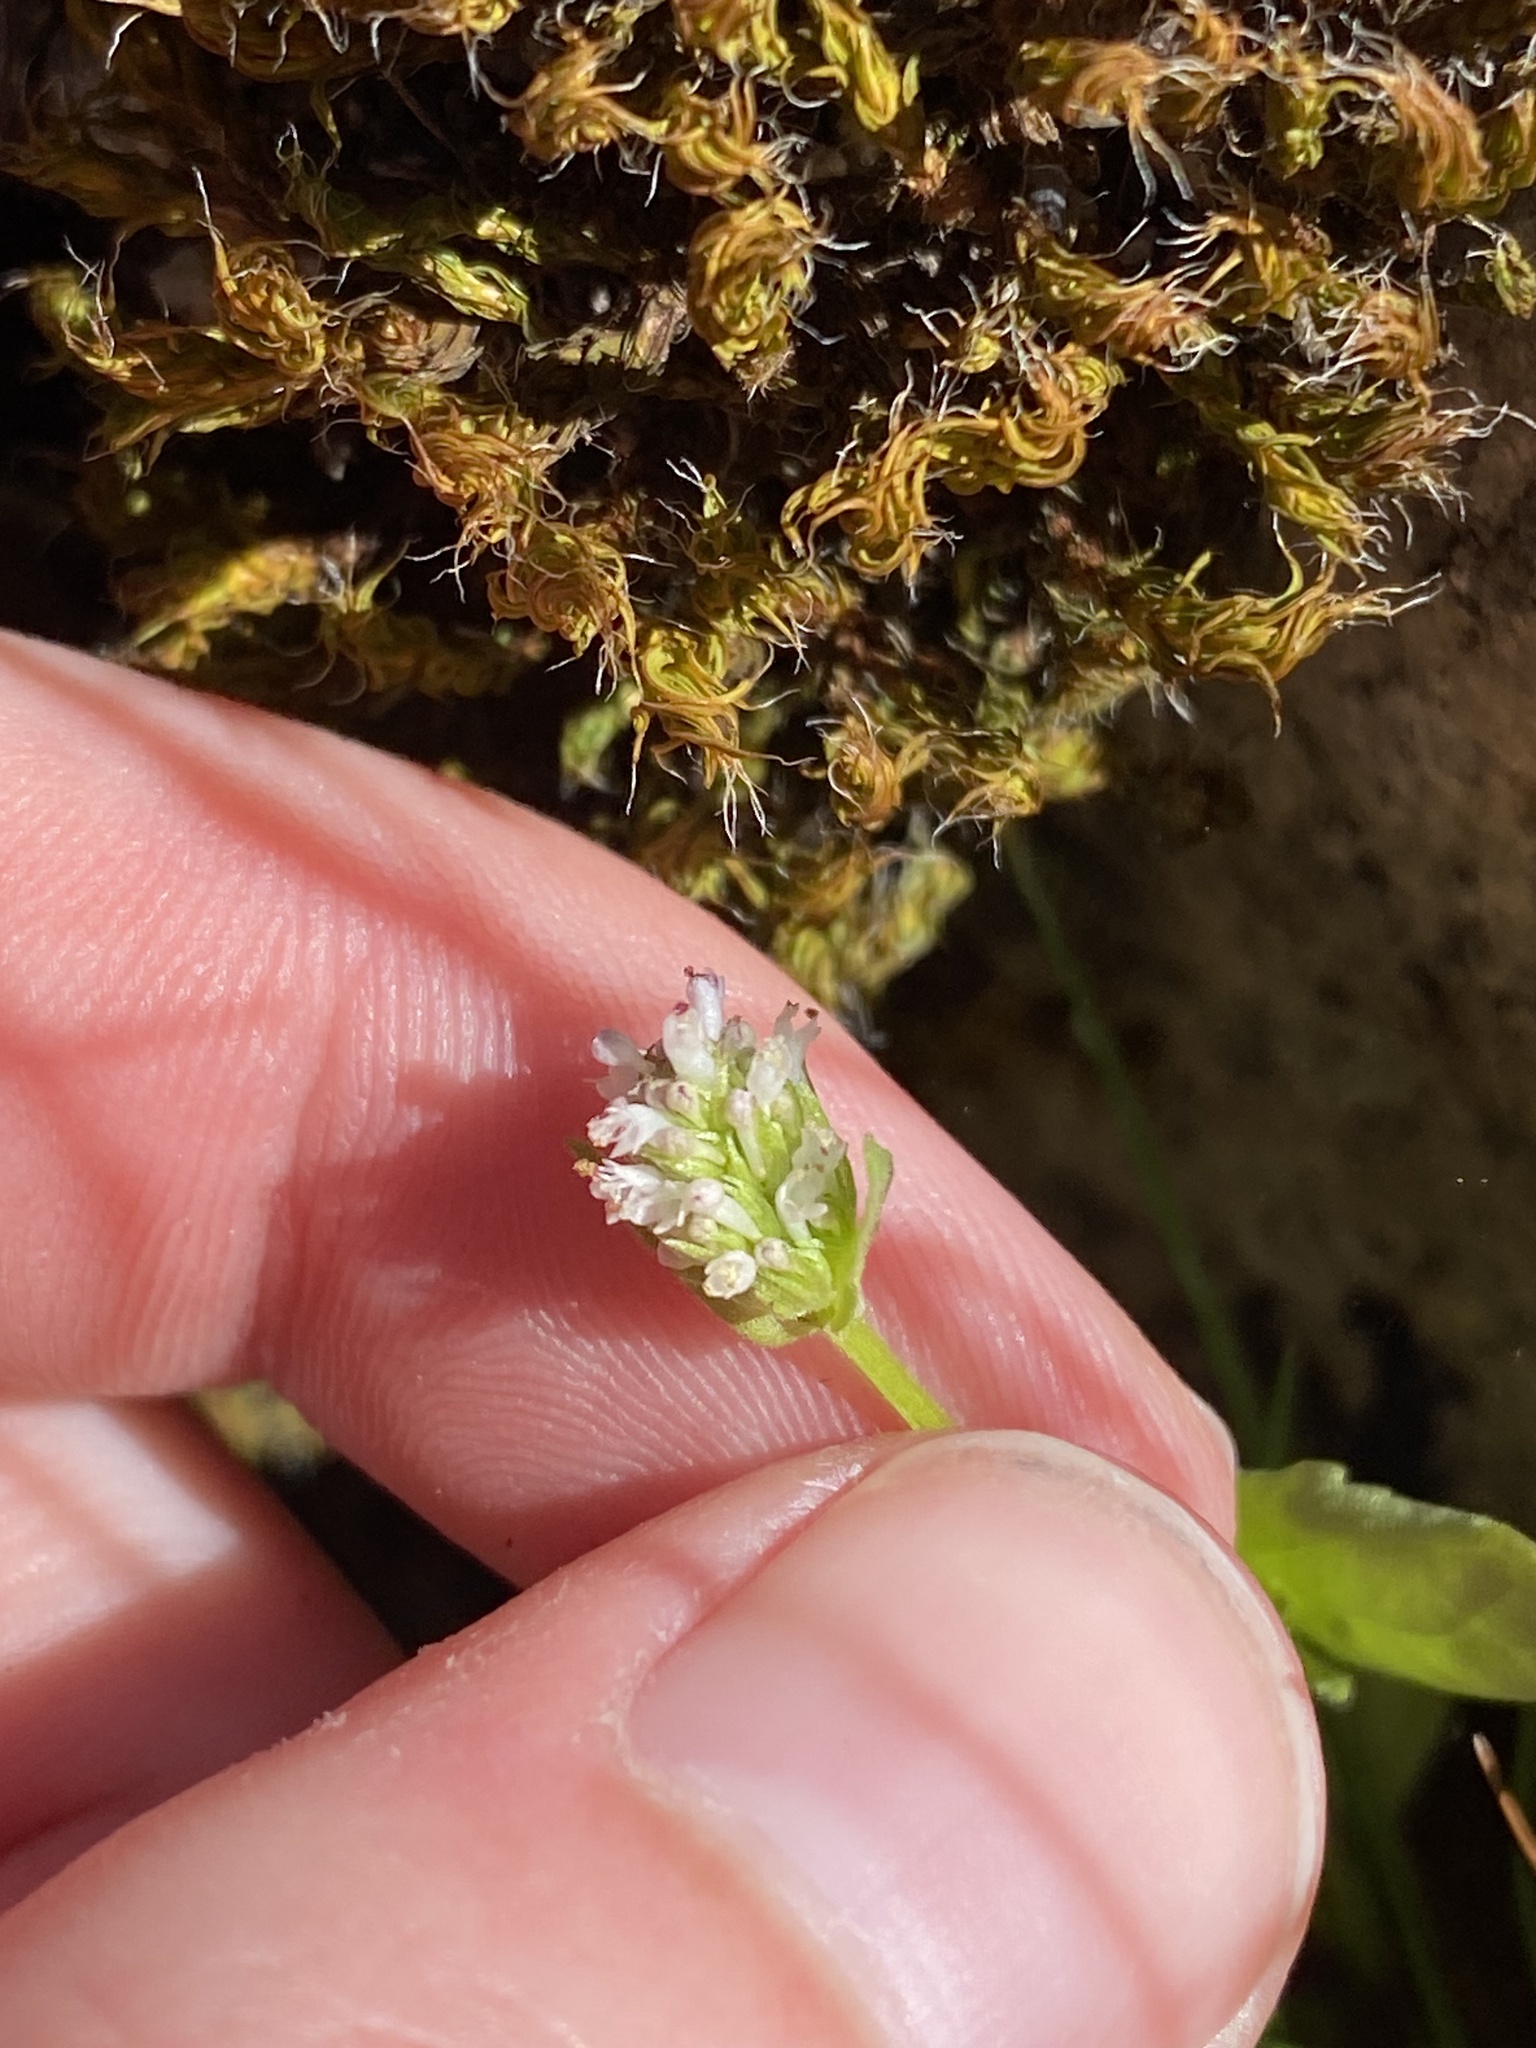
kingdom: Plantae
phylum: Tracheophyta
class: Magnoliopsida
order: Dipsacales
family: Caprifoliaceae
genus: Plectritis
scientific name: Plectritis macroptera
